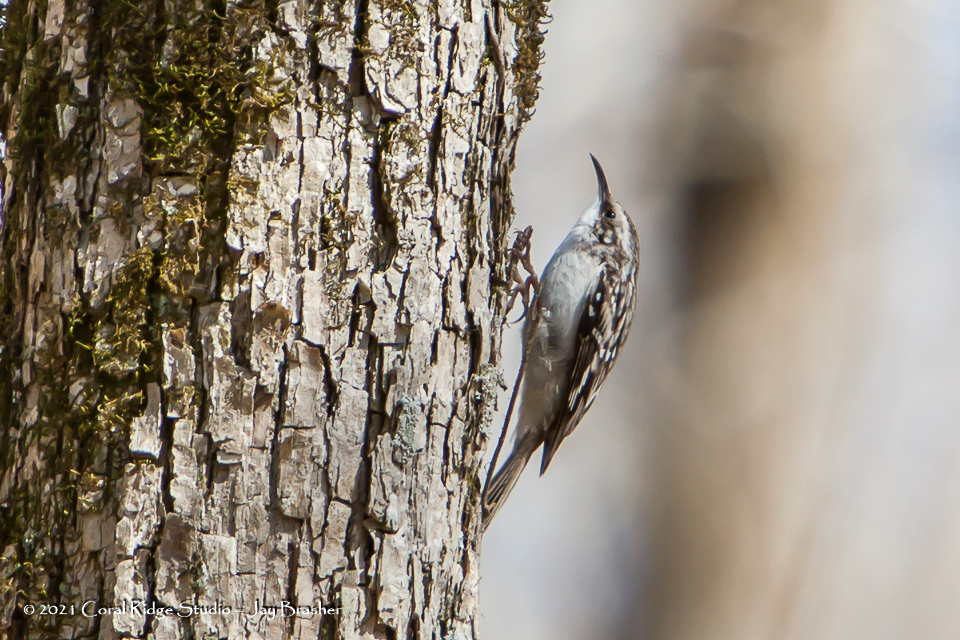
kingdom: Animalia
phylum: Chordata
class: Aves
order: Passeriformes
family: Certhiidae
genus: Certhia
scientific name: Certhia americana
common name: Brown creeper
